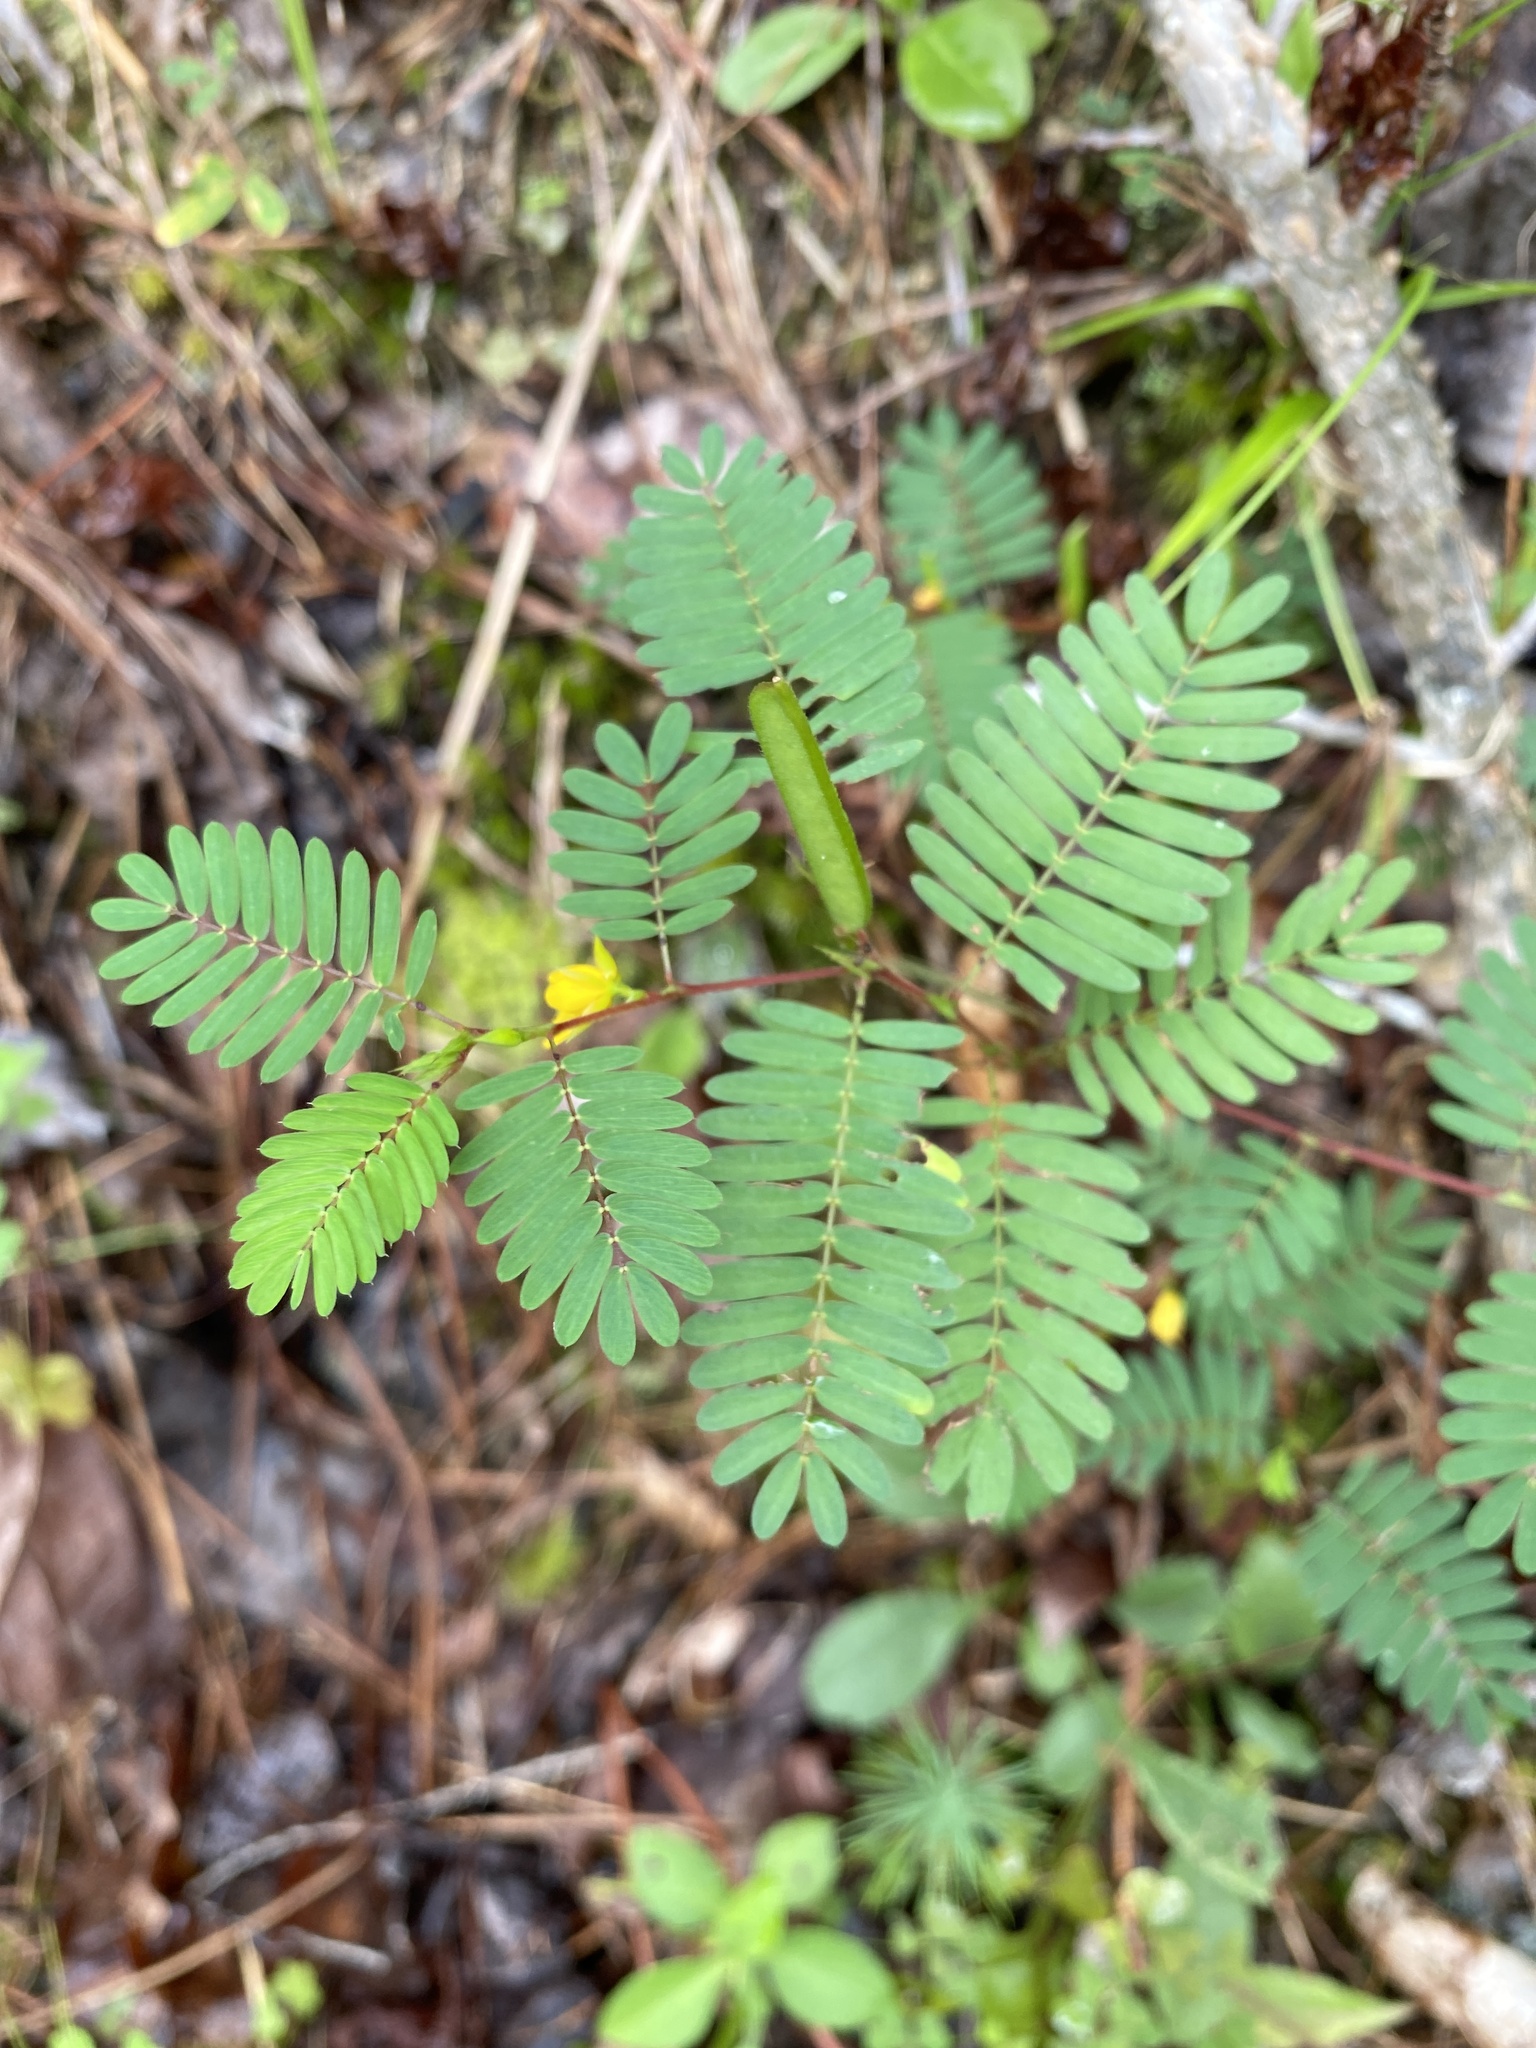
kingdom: Plantae
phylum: Tracheophyta
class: Magnoliopsida
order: Fabales
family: Fabaceae
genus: Chamaecrista
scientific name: Chamaecrista nictitans
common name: Sensitive cassia
